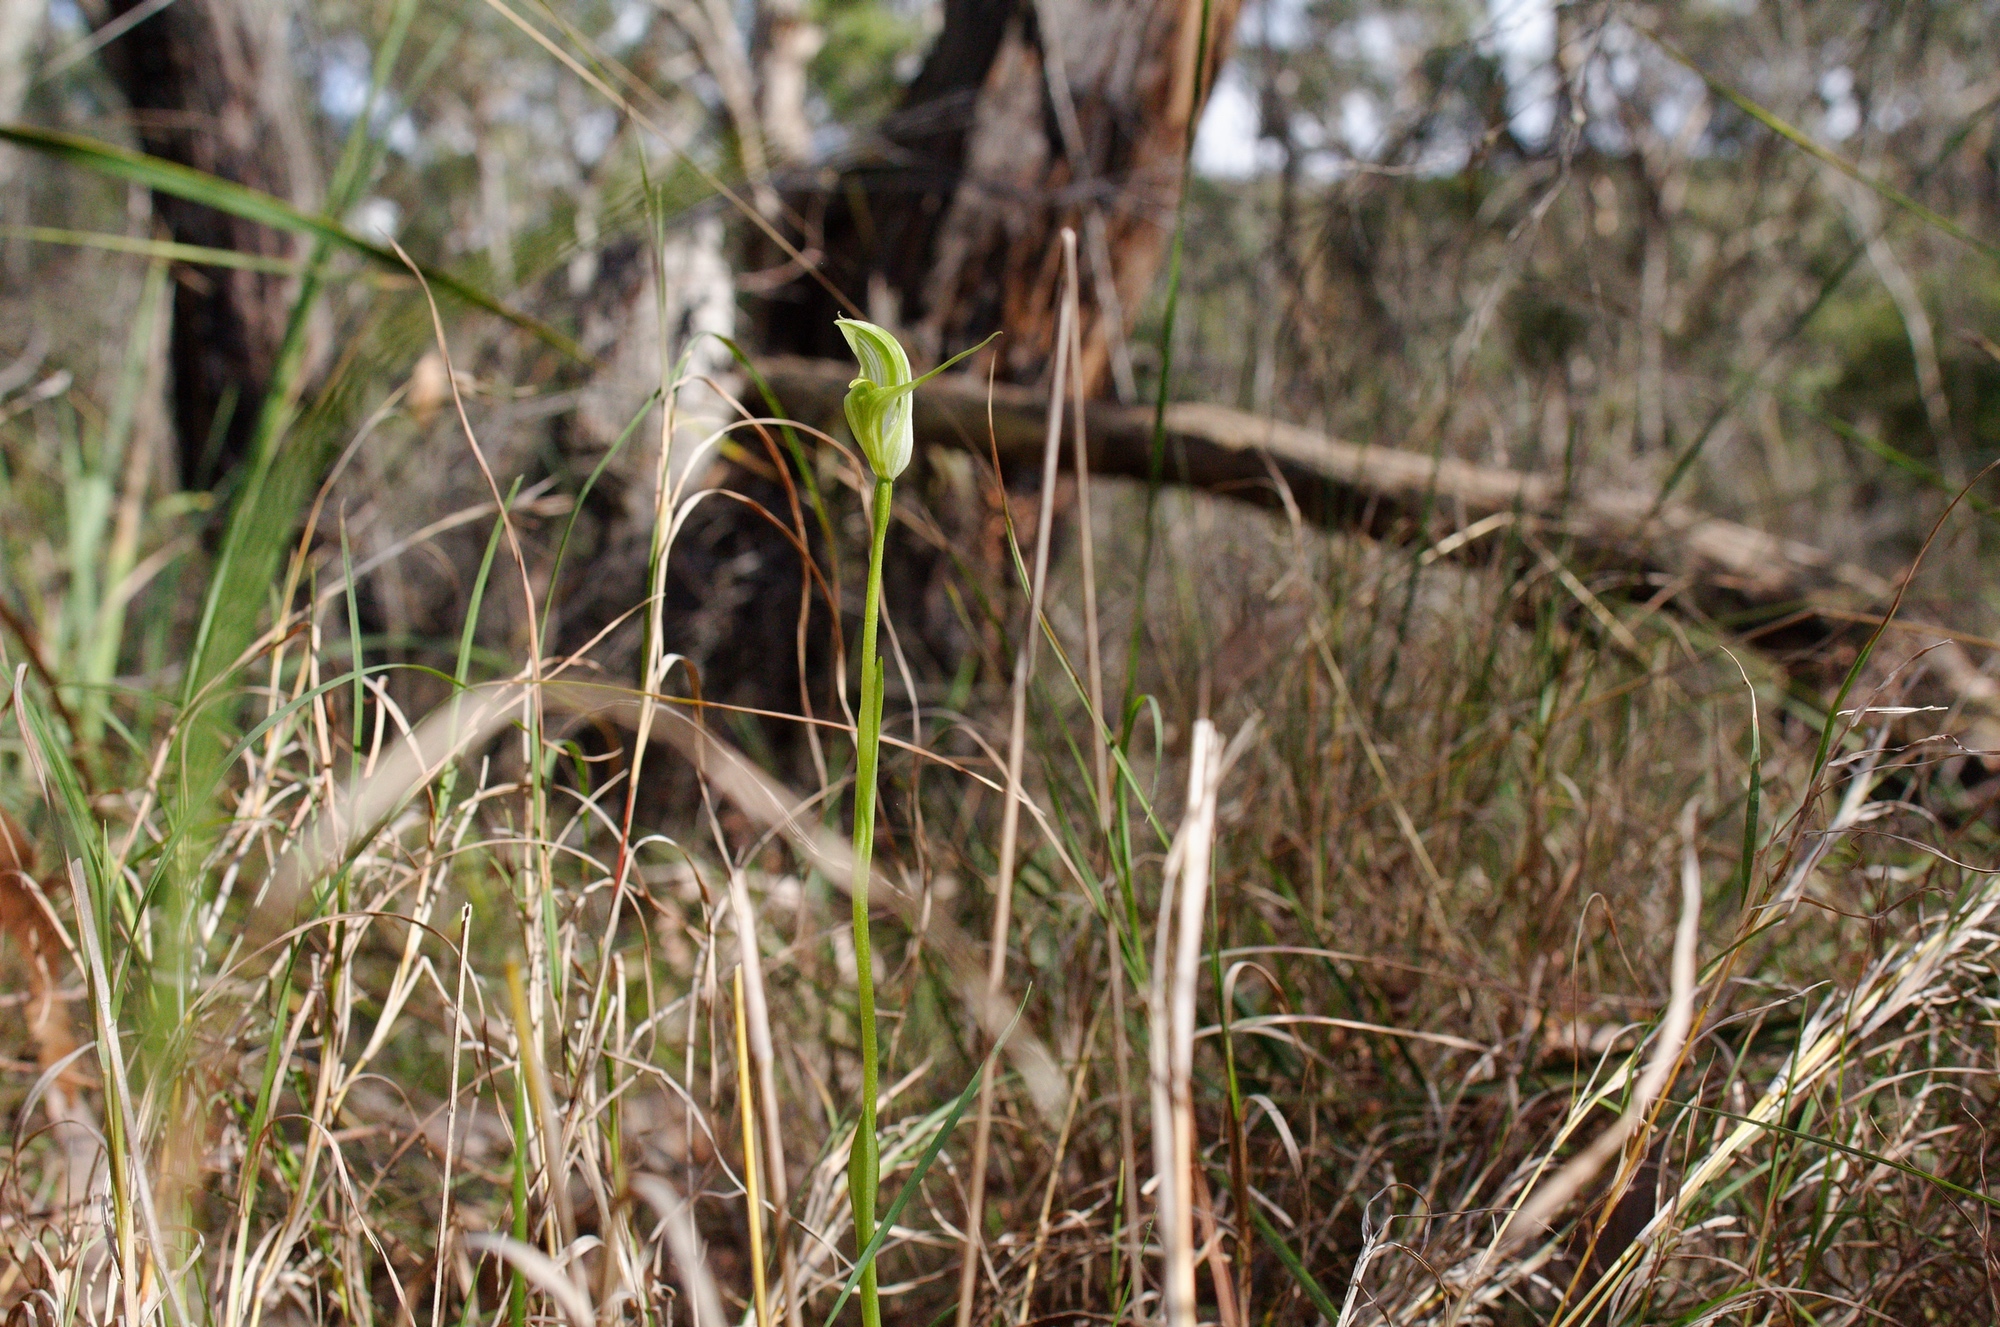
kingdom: Plantae
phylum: Tracheophyta
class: Liliopsida
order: Asparagales
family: Orchidaceae
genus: Pterostylis
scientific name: Pterostylis alpina
